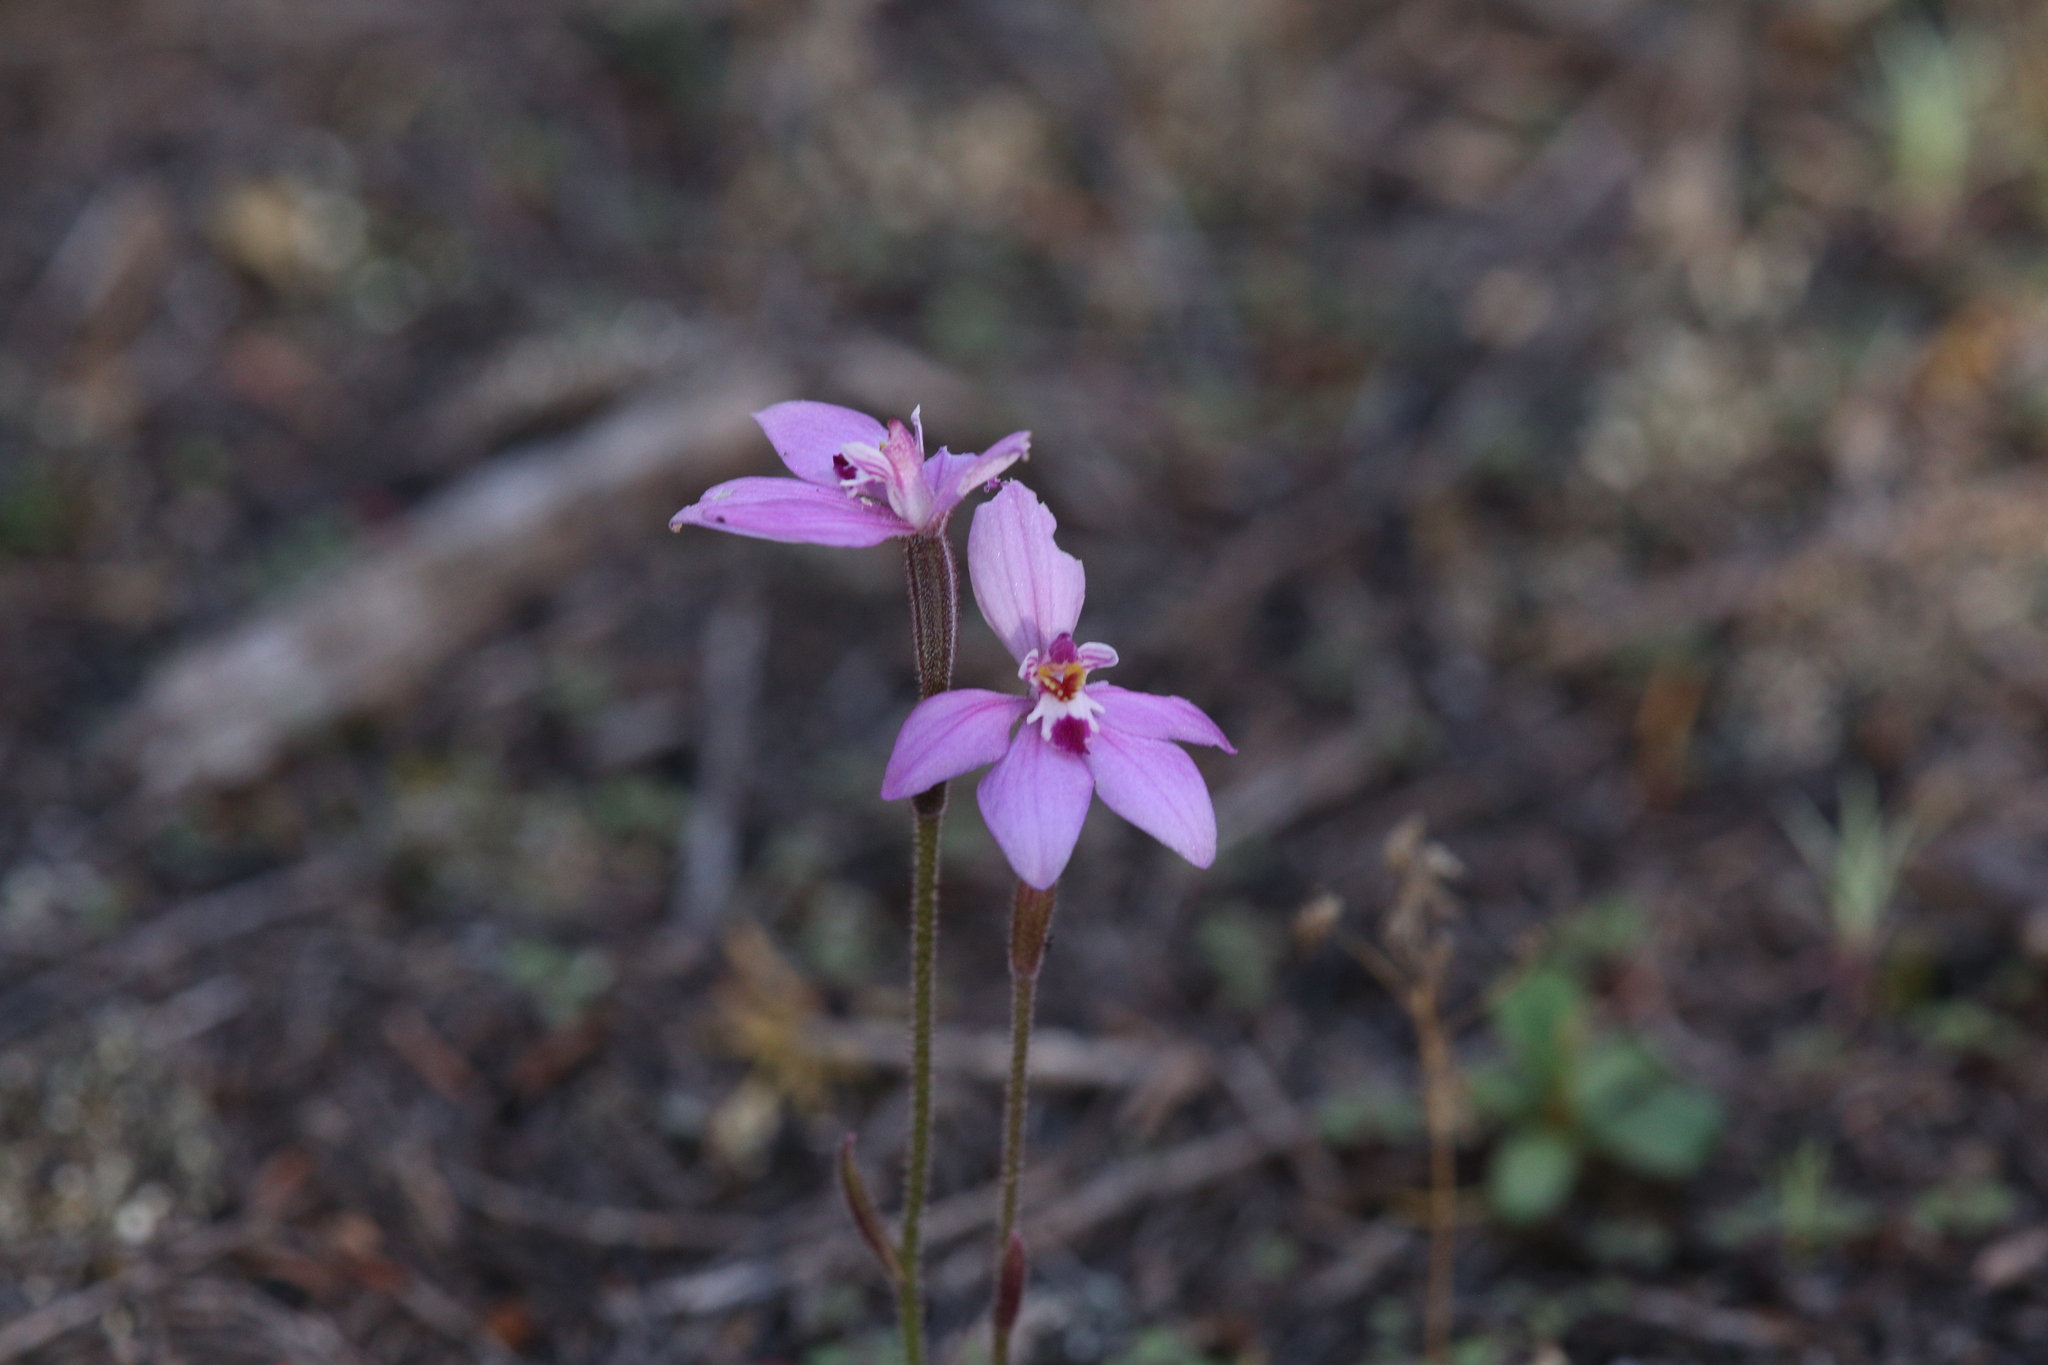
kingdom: Plantae
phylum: Tracheophyta
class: Liliopsida
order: Asparagales
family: Orchidaceae
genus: Caladenia
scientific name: Caladenia reptans
